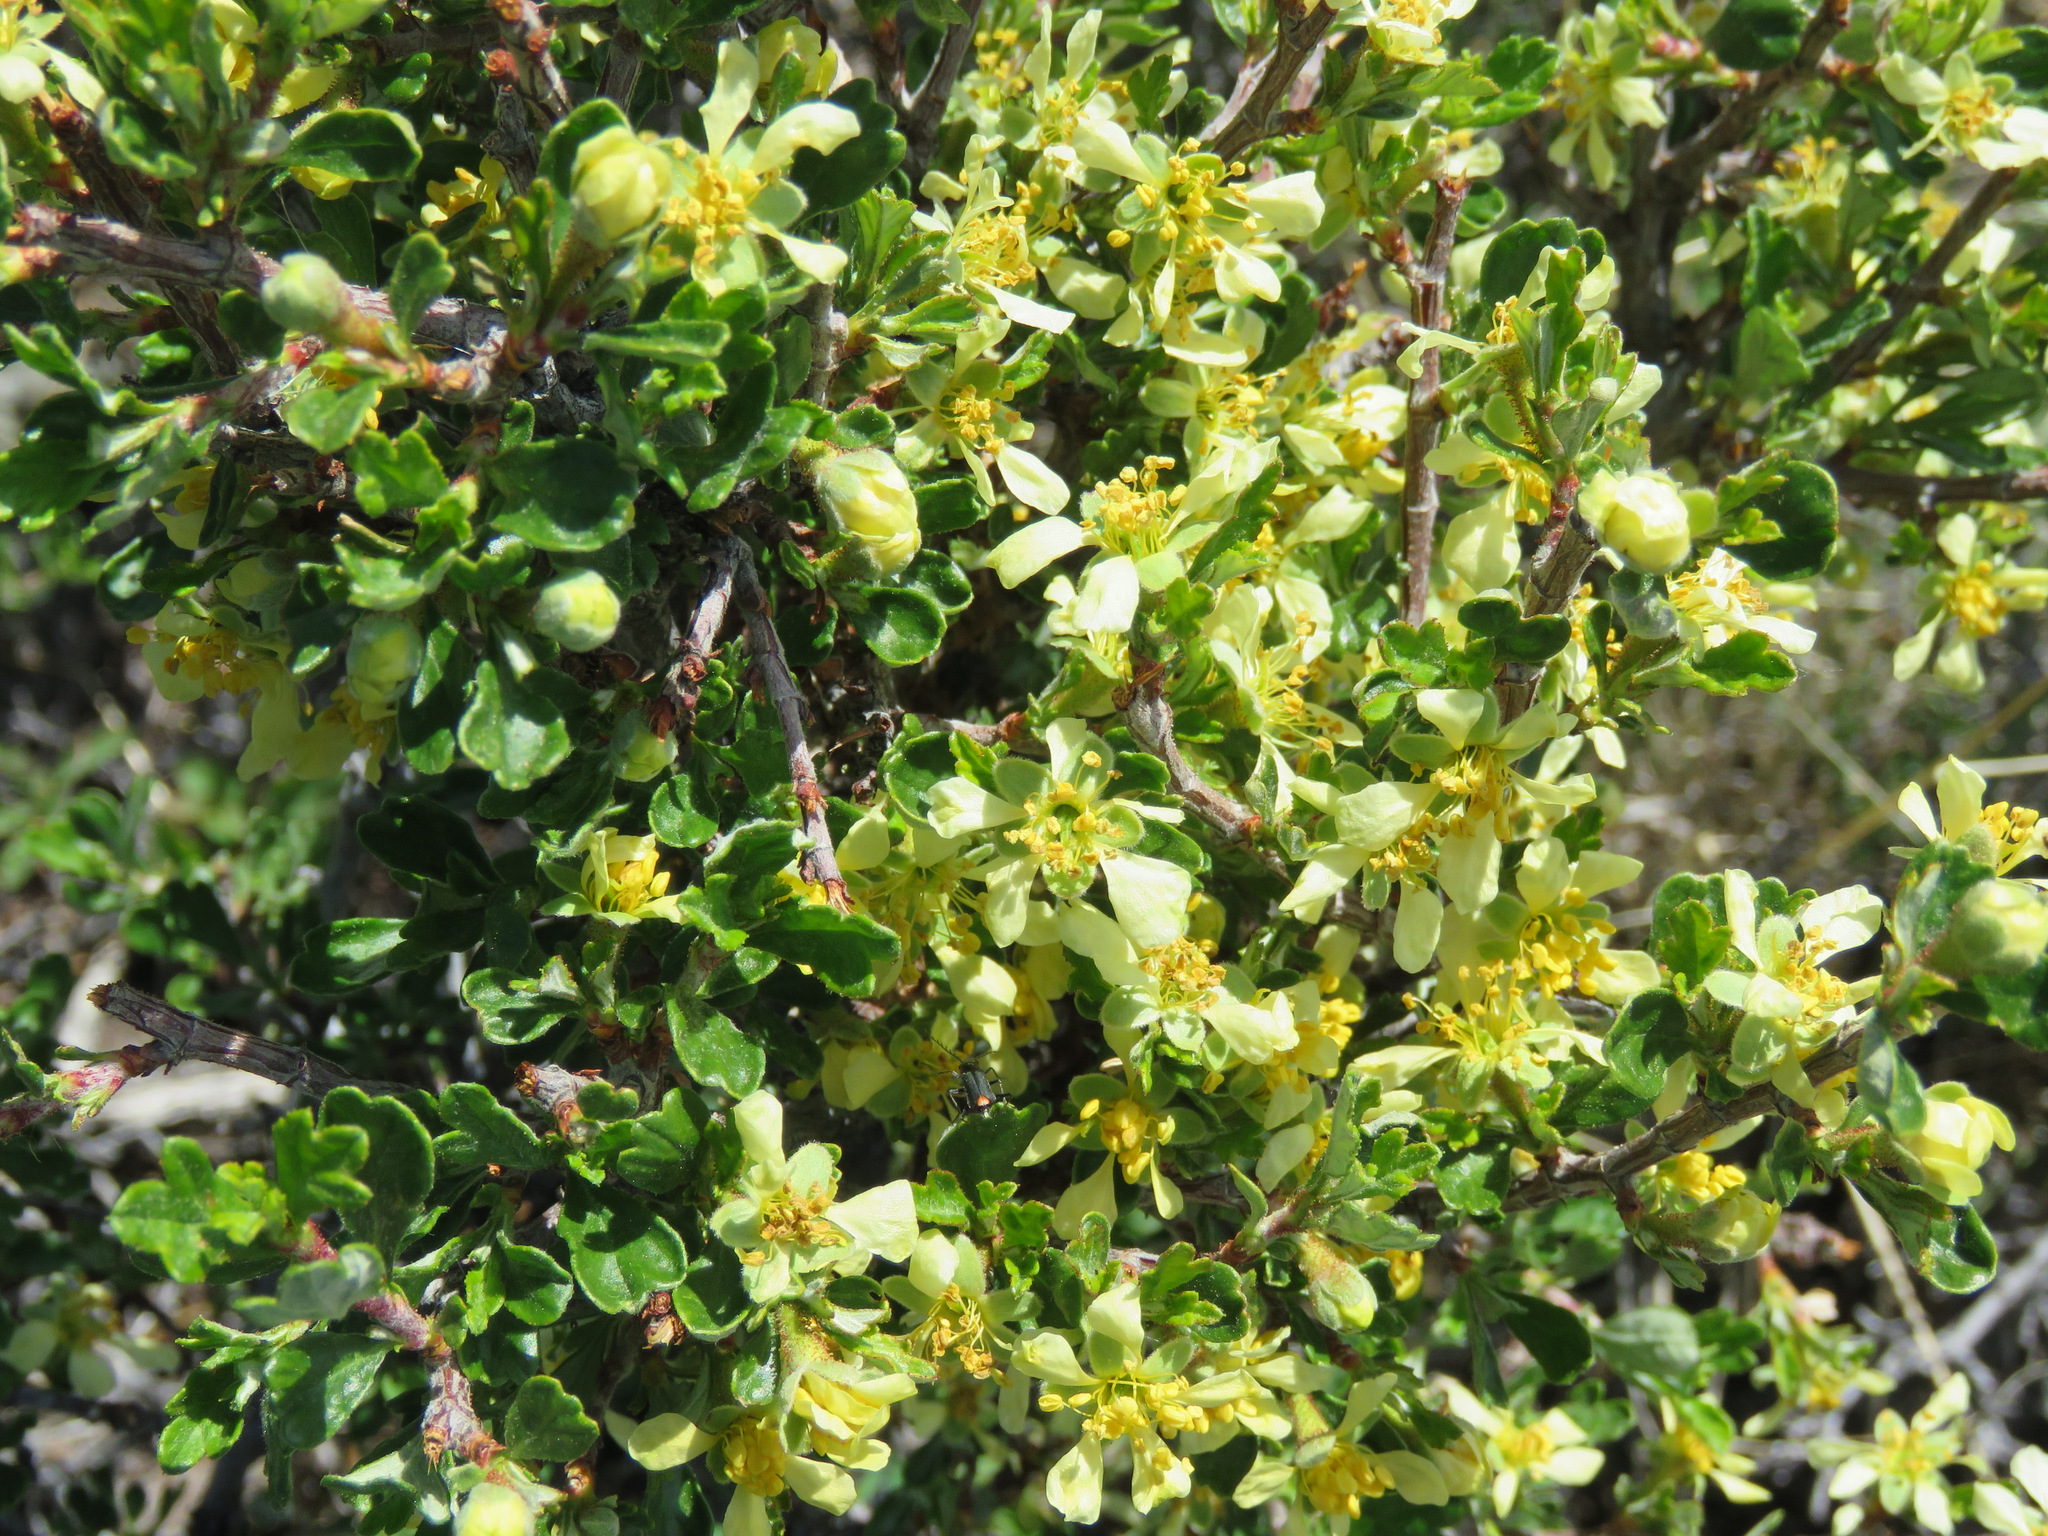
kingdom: Plantae
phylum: Tracheophyta
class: Magnoliopsida
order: Rosales
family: Rosaceae
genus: Purshia
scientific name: Purshia tridentata
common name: Antelope bitterbrush
